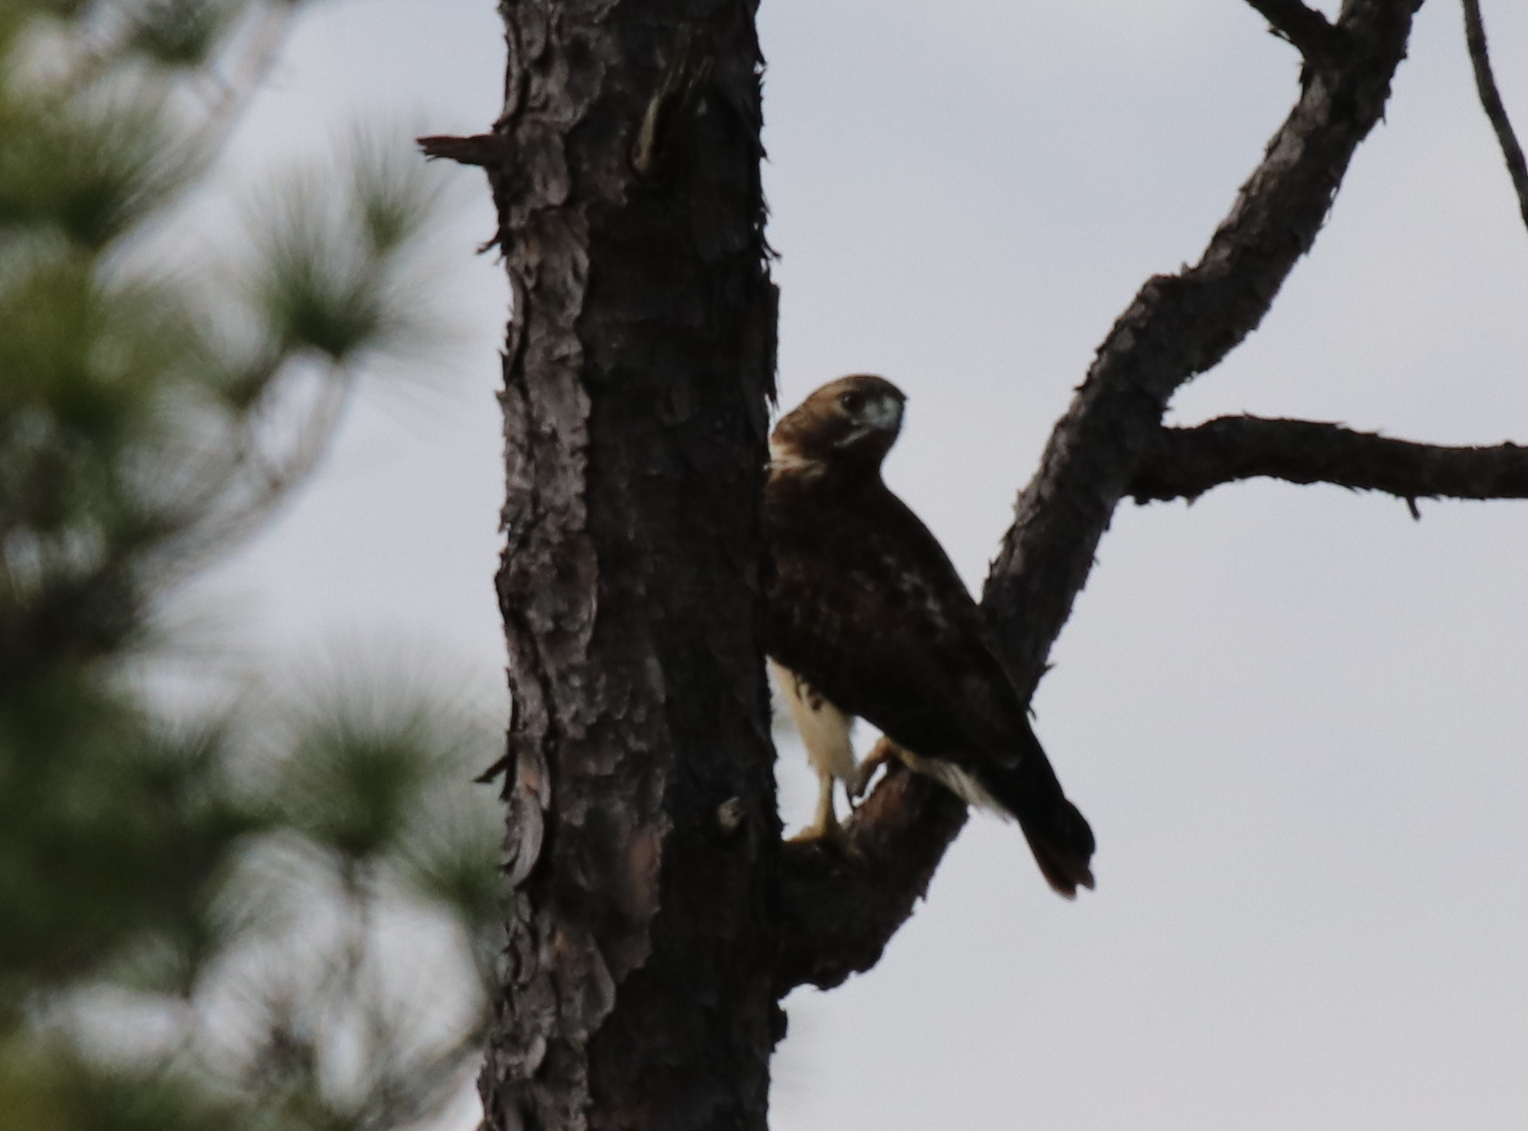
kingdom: Animalia
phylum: Chordata
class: Aves
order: Accipitriformes
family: Accipitridae
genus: Buteo
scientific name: Buteo jamaicensis
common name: Red-tailed hawk
